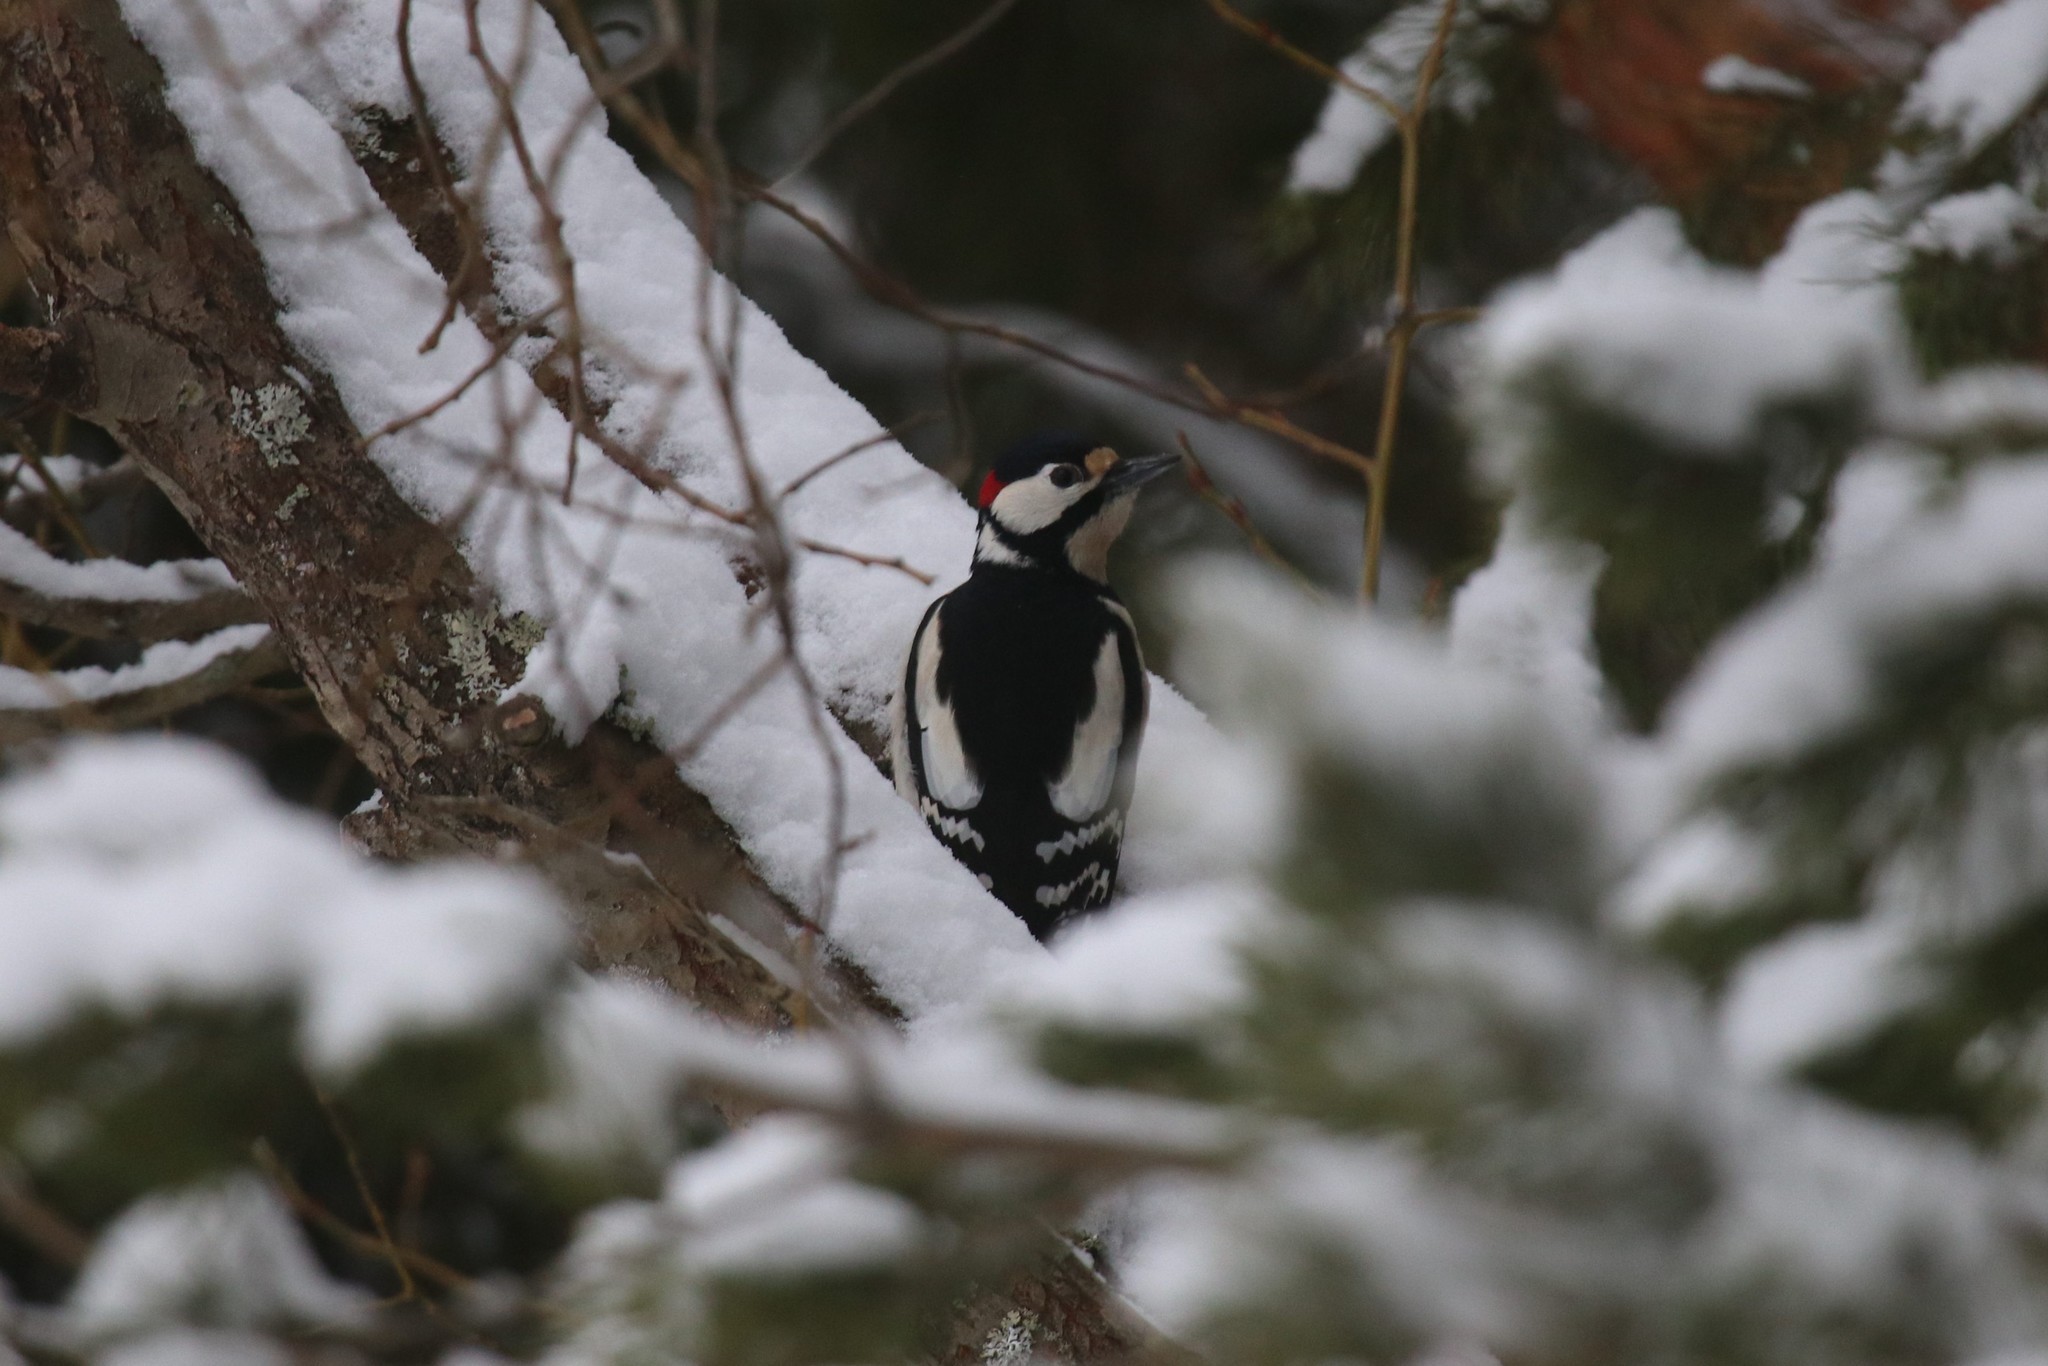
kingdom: Animalia
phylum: Chordata
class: Aves
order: Piciformes
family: Picidae
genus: Dendrocopos
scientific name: Dendrocopos major
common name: Great spotted woodpecker
